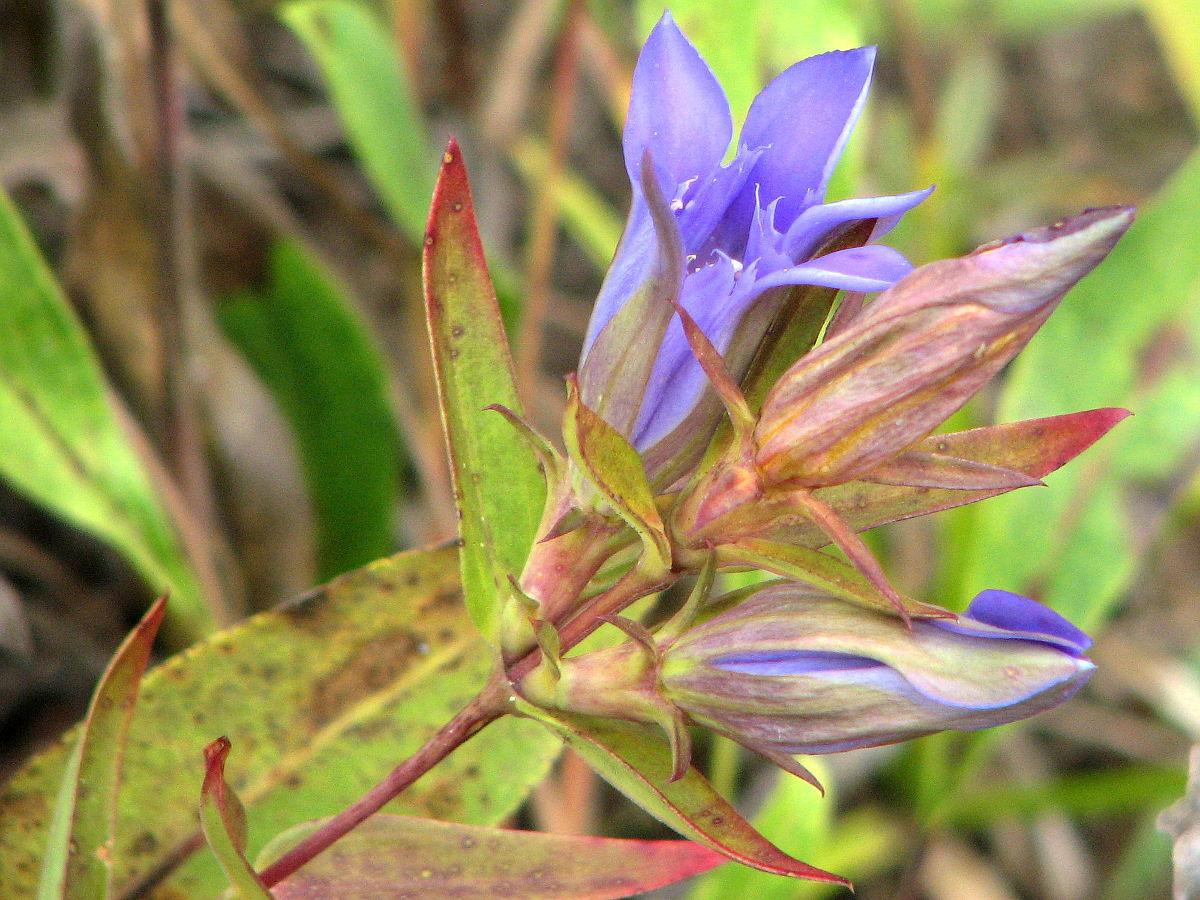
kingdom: Plantae
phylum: Tracheophyta
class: Magnoliopsida
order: Gentianales
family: Gentianaceae
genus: Gentiana
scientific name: Gentiana puberulenta
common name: Downy gentian
